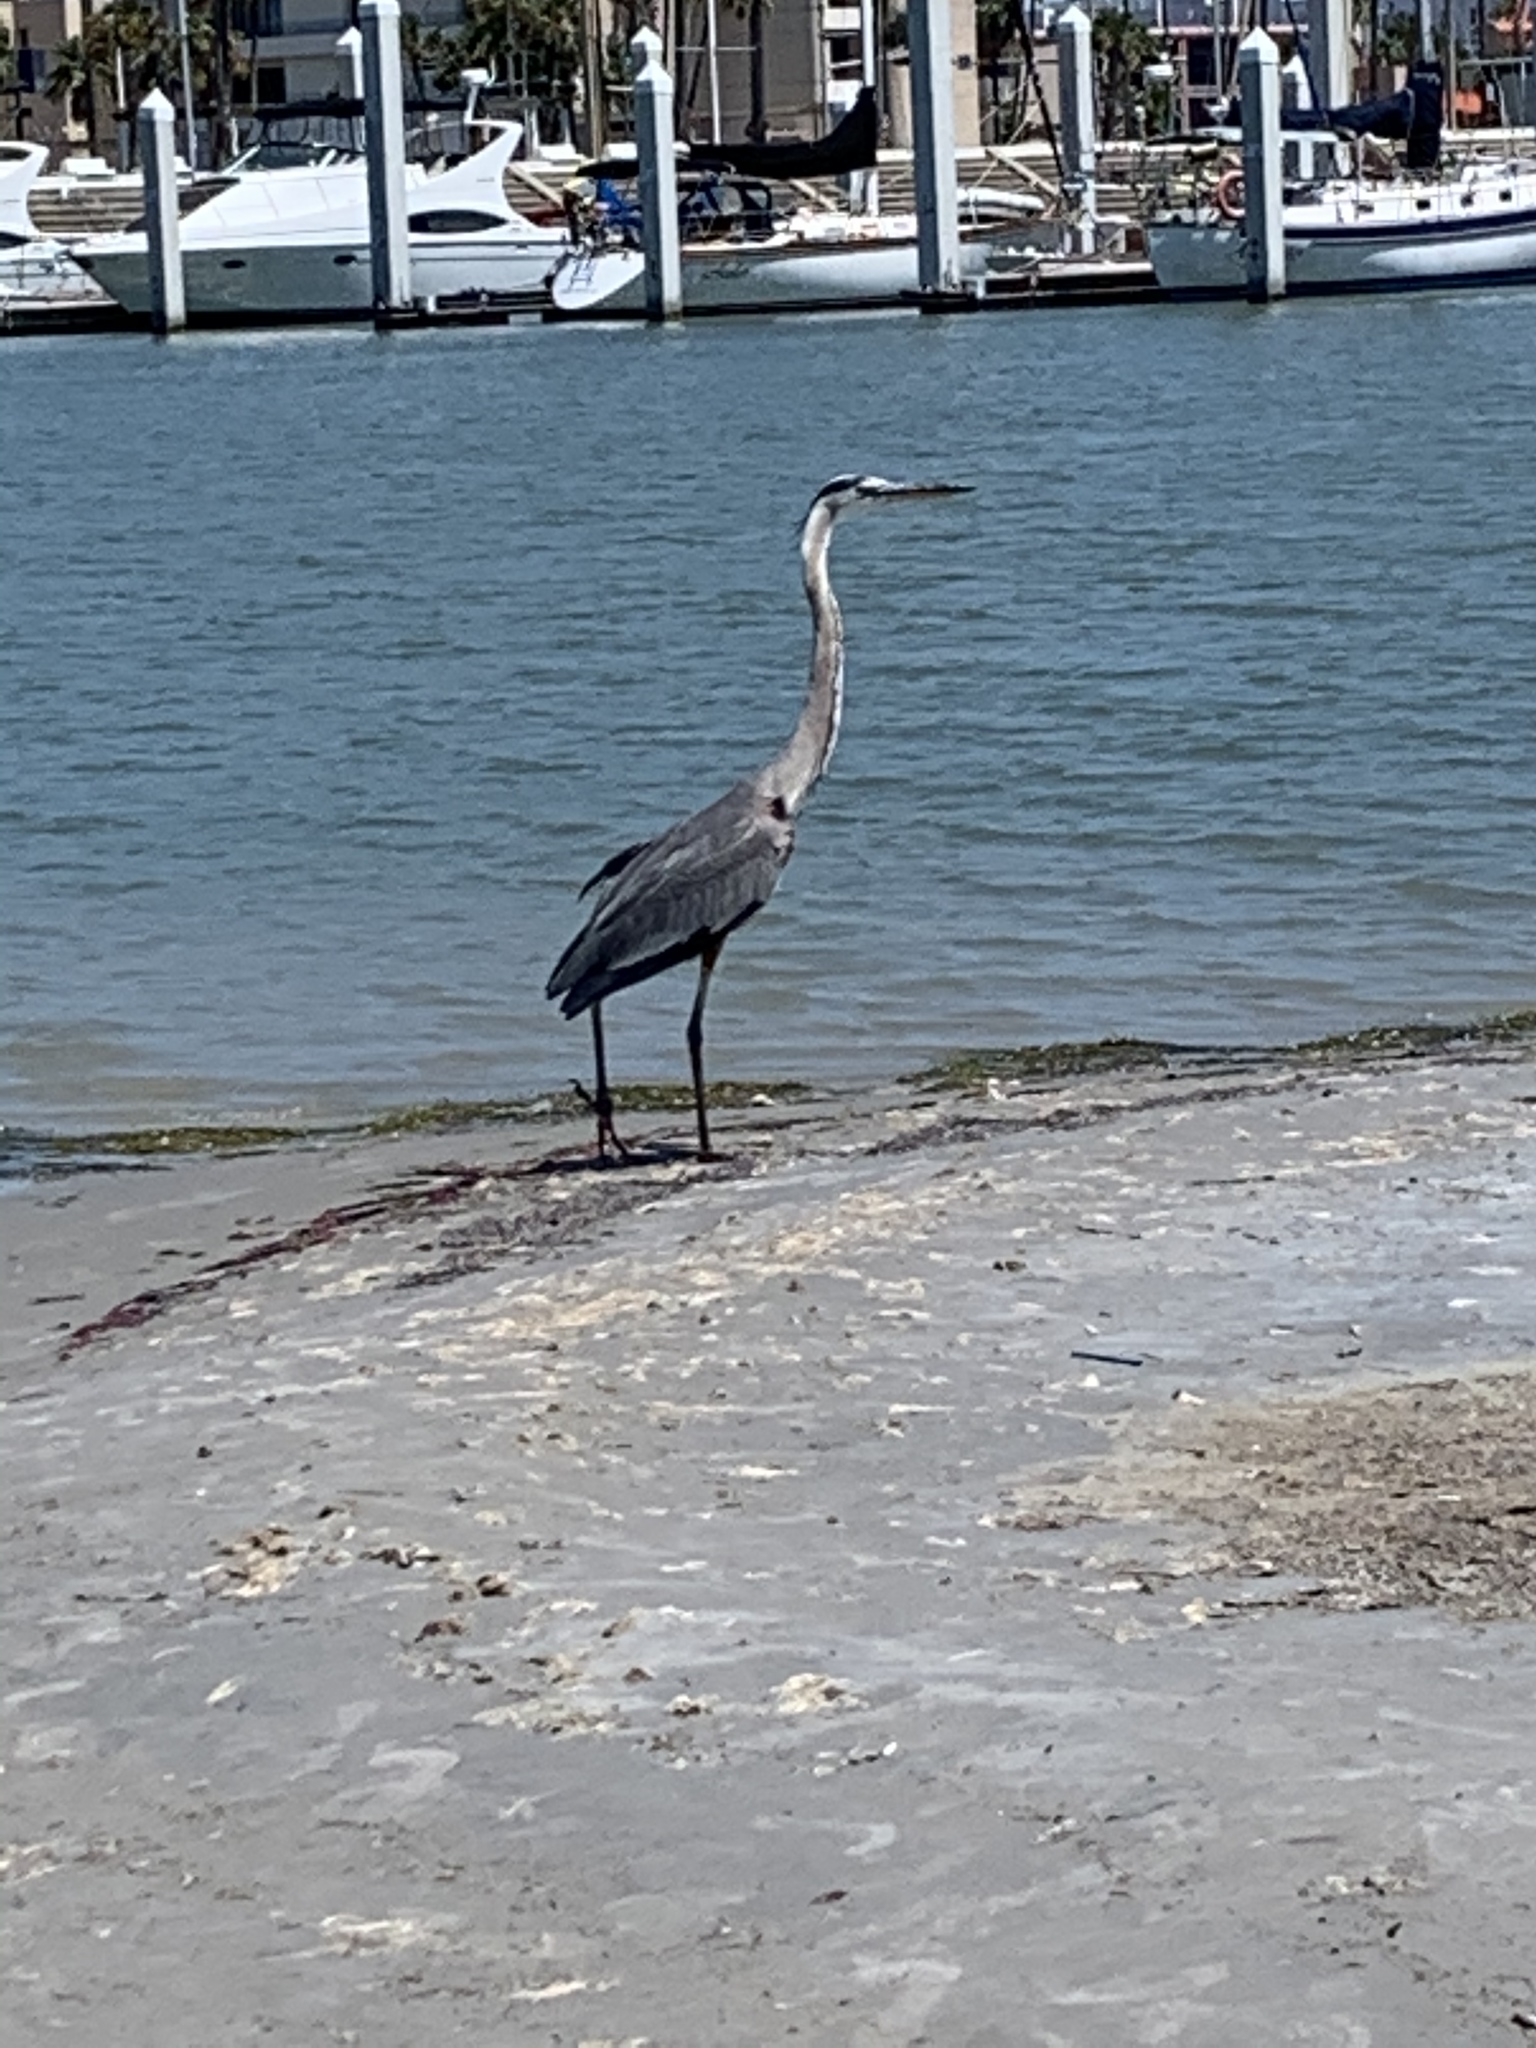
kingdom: Animalia
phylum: Chordata
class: Aves
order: Pelecaniformes
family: Ardeidae
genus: Ardea
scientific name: Ardea herodias
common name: Great blue heron
